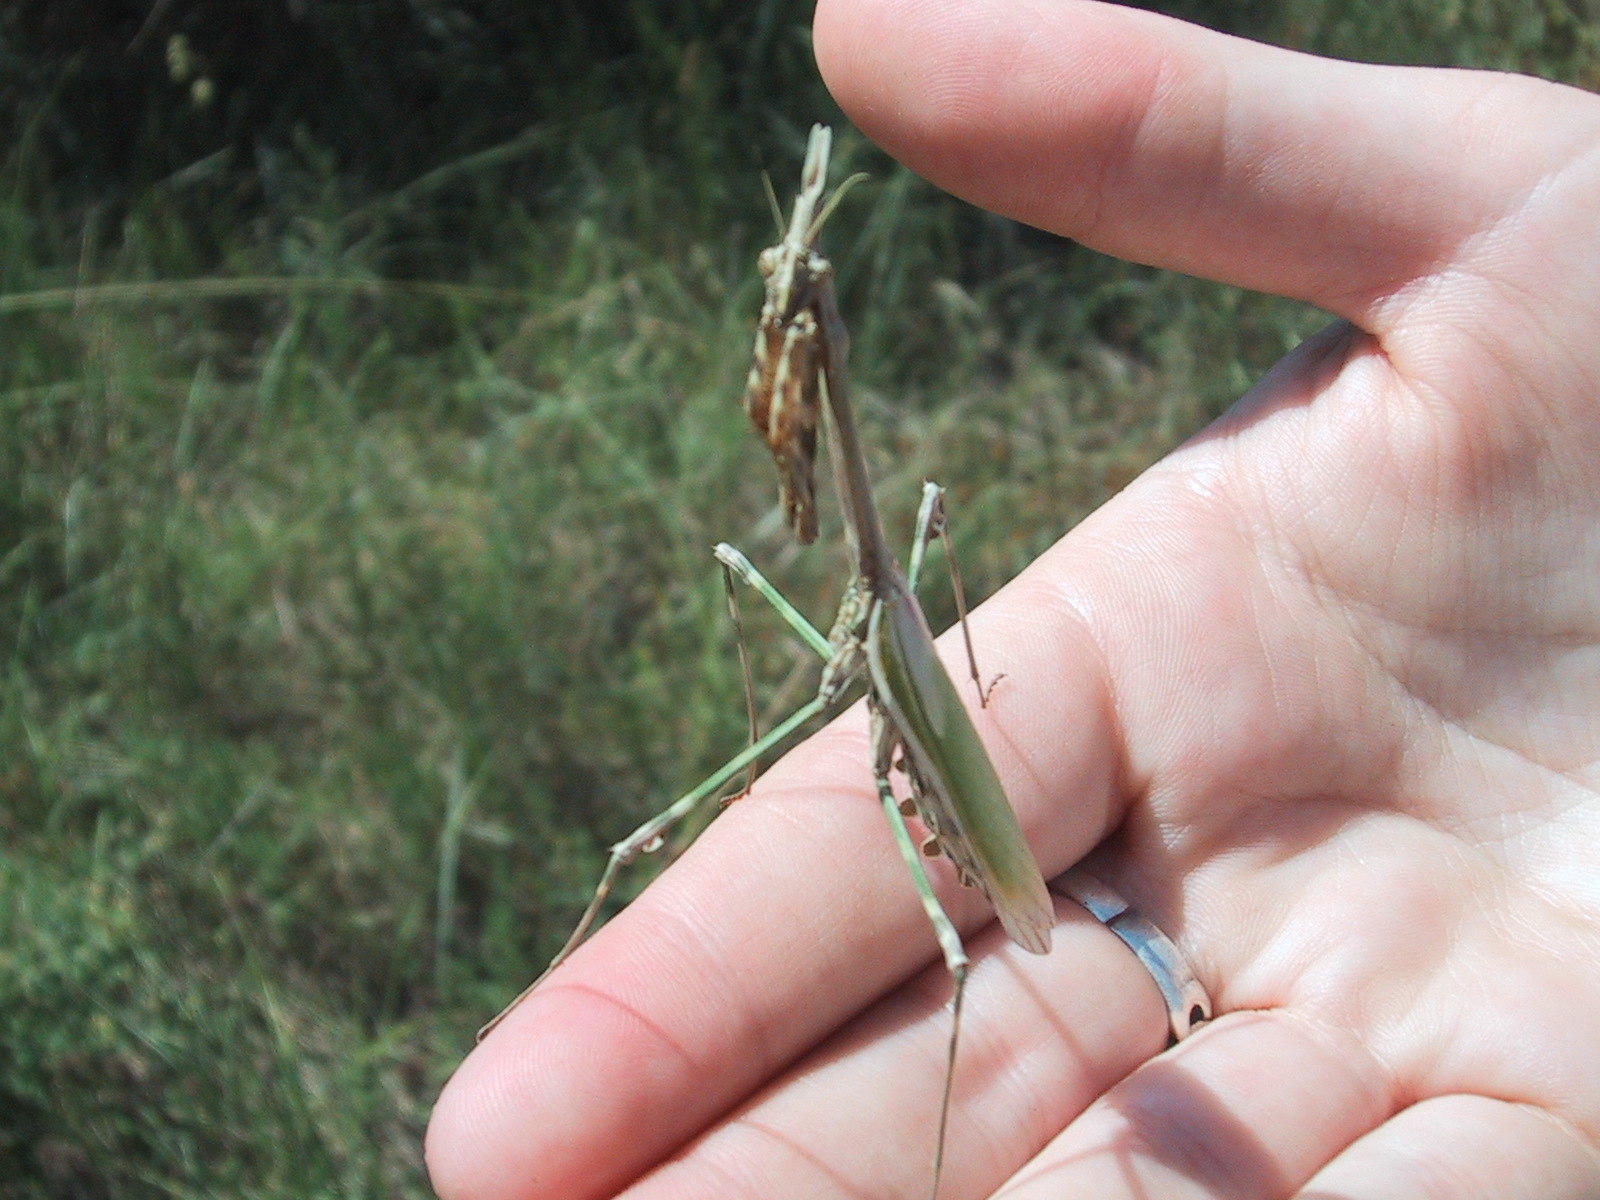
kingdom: Animalia
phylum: Arthropoda
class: Insecta
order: Mantodea
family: Empusidae
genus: Empusa
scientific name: Empusa pennata
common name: Conehead mantis
